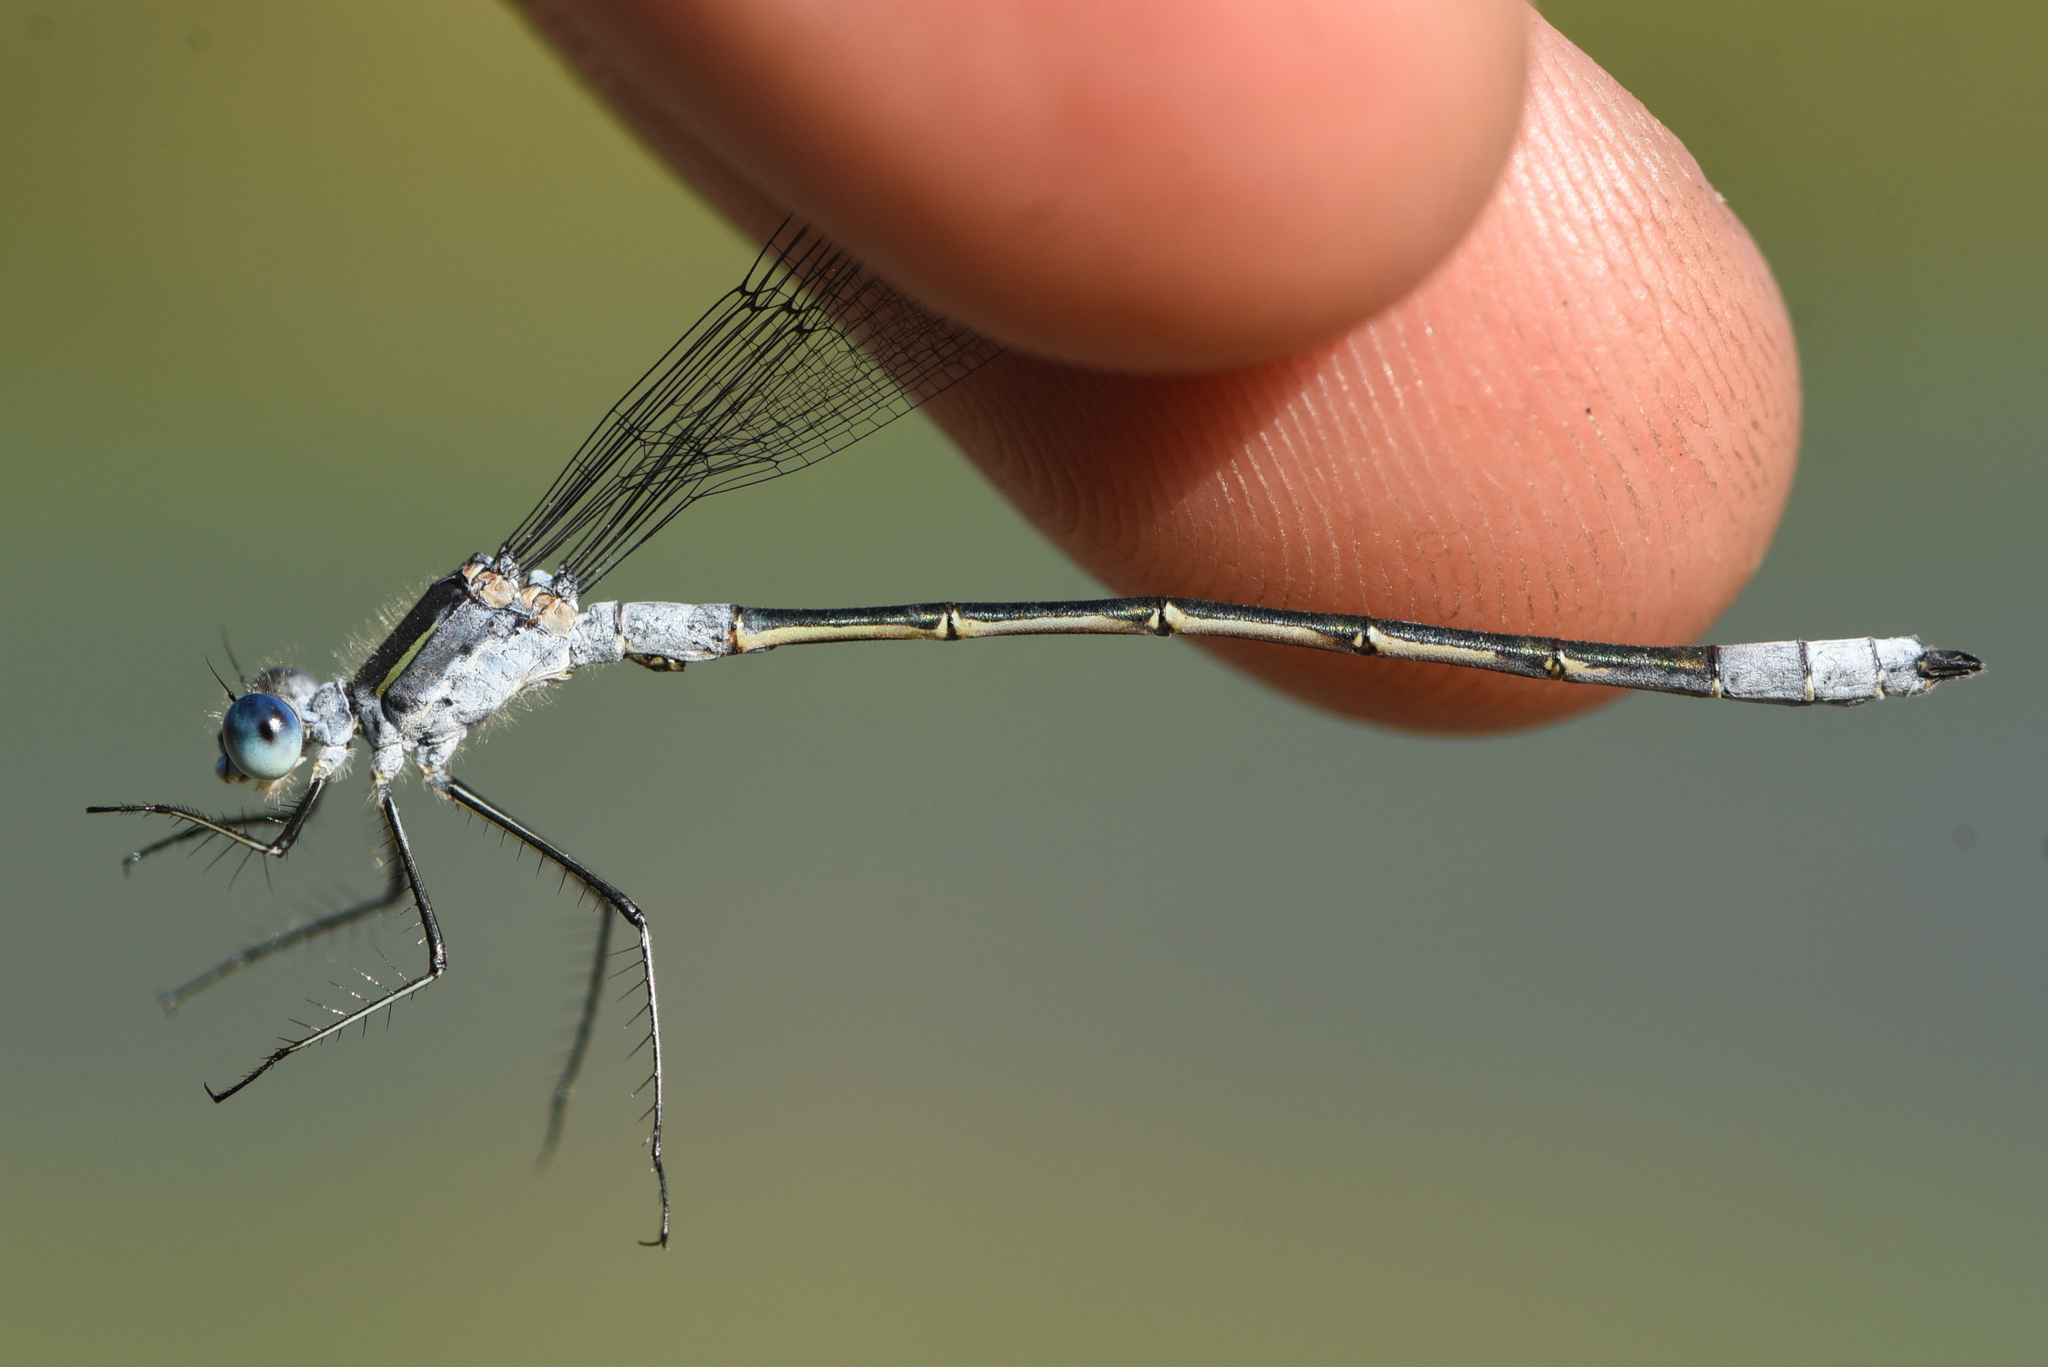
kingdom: Animalia
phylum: Arthropoda
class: Insecta
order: Odonata
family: Lestidae
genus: Lestes
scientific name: Lestes disjunctus
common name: Northern spreadwing
